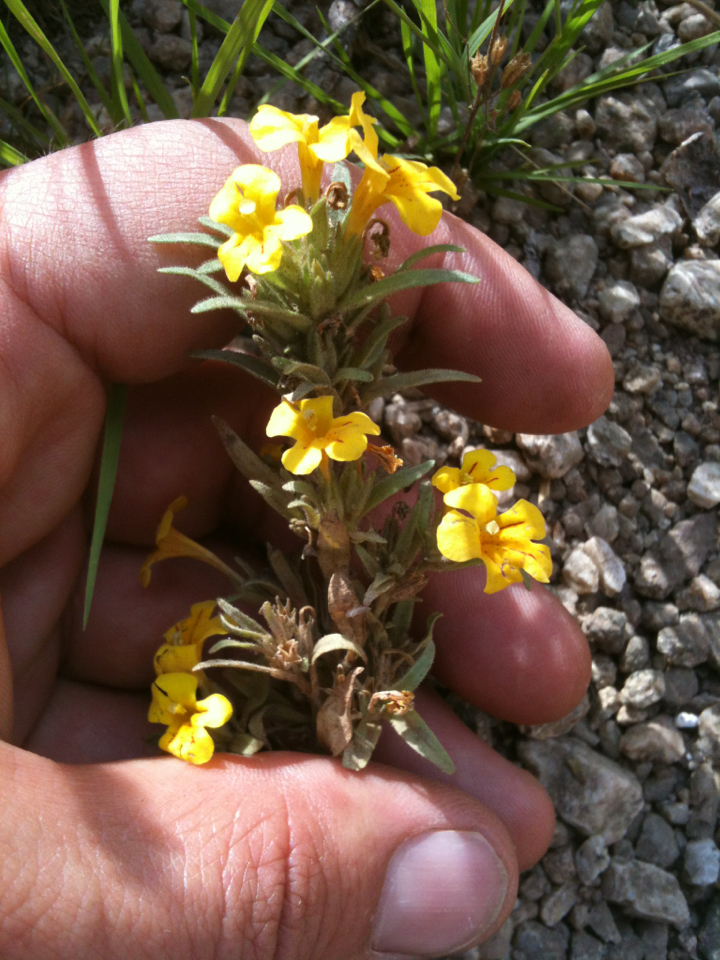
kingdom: Plantae
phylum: Tracheophyta
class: Magnoliopsida
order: Lamiales
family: Phrymaceae
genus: Diplacus
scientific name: Diplacus mephiticus
